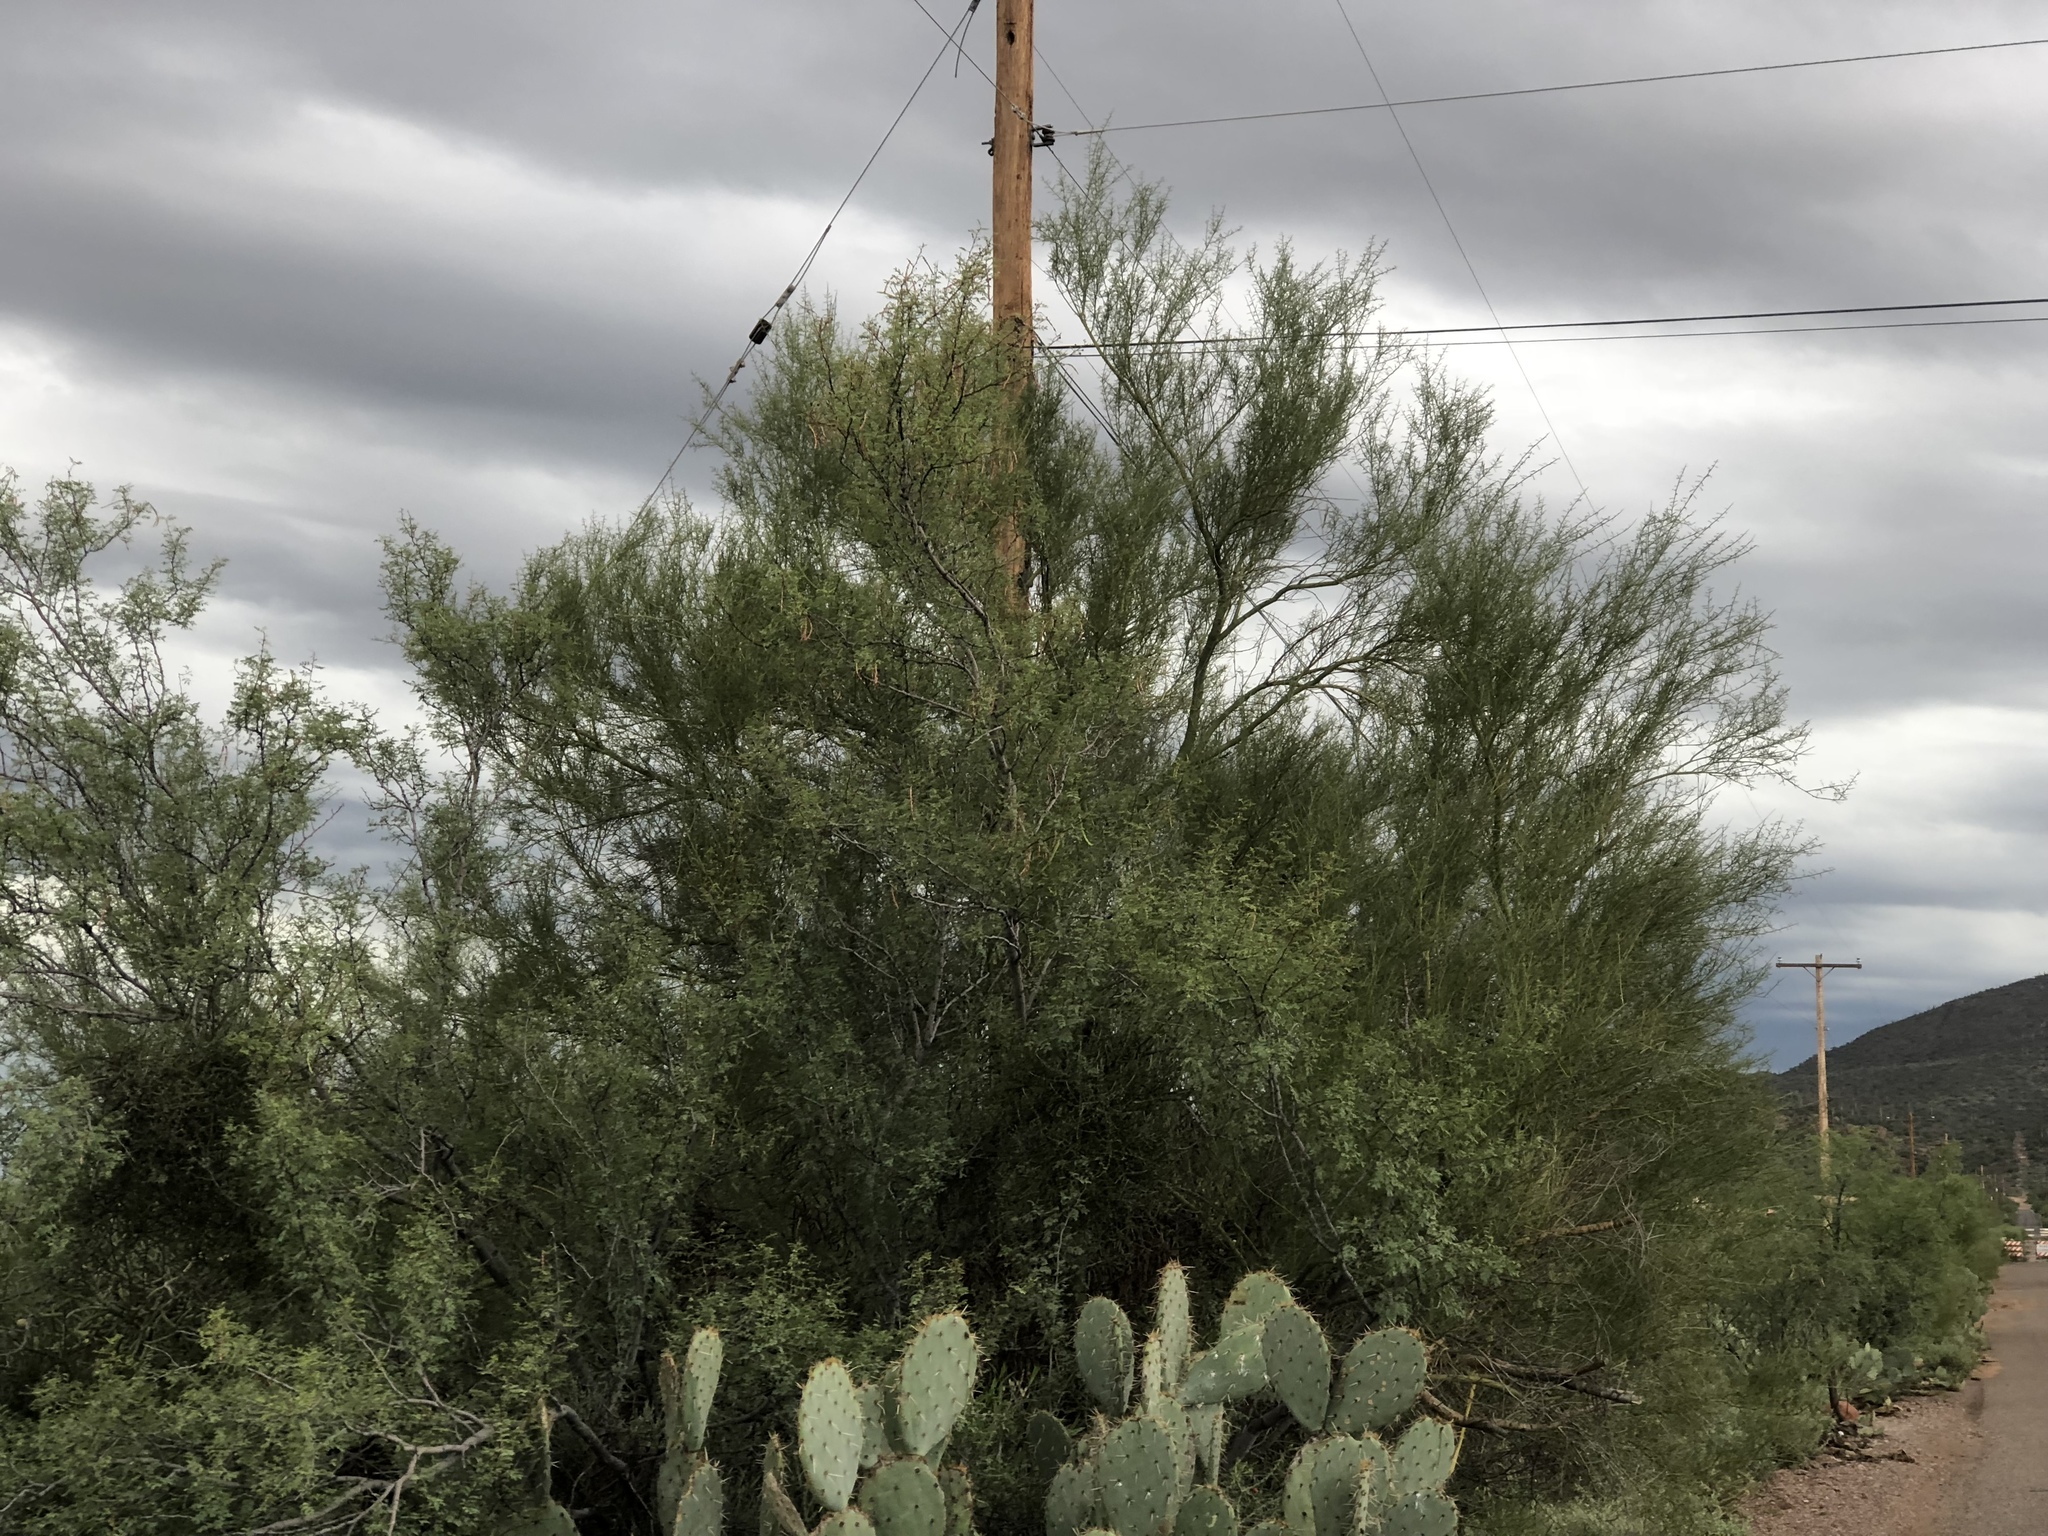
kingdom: Plantae
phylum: Tracheophyta
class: Magnoliopsida
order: Fabales
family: Fabaceae
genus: Parkinsonia
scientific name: Parkinsonia microphylla
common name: Yellow paloverde
